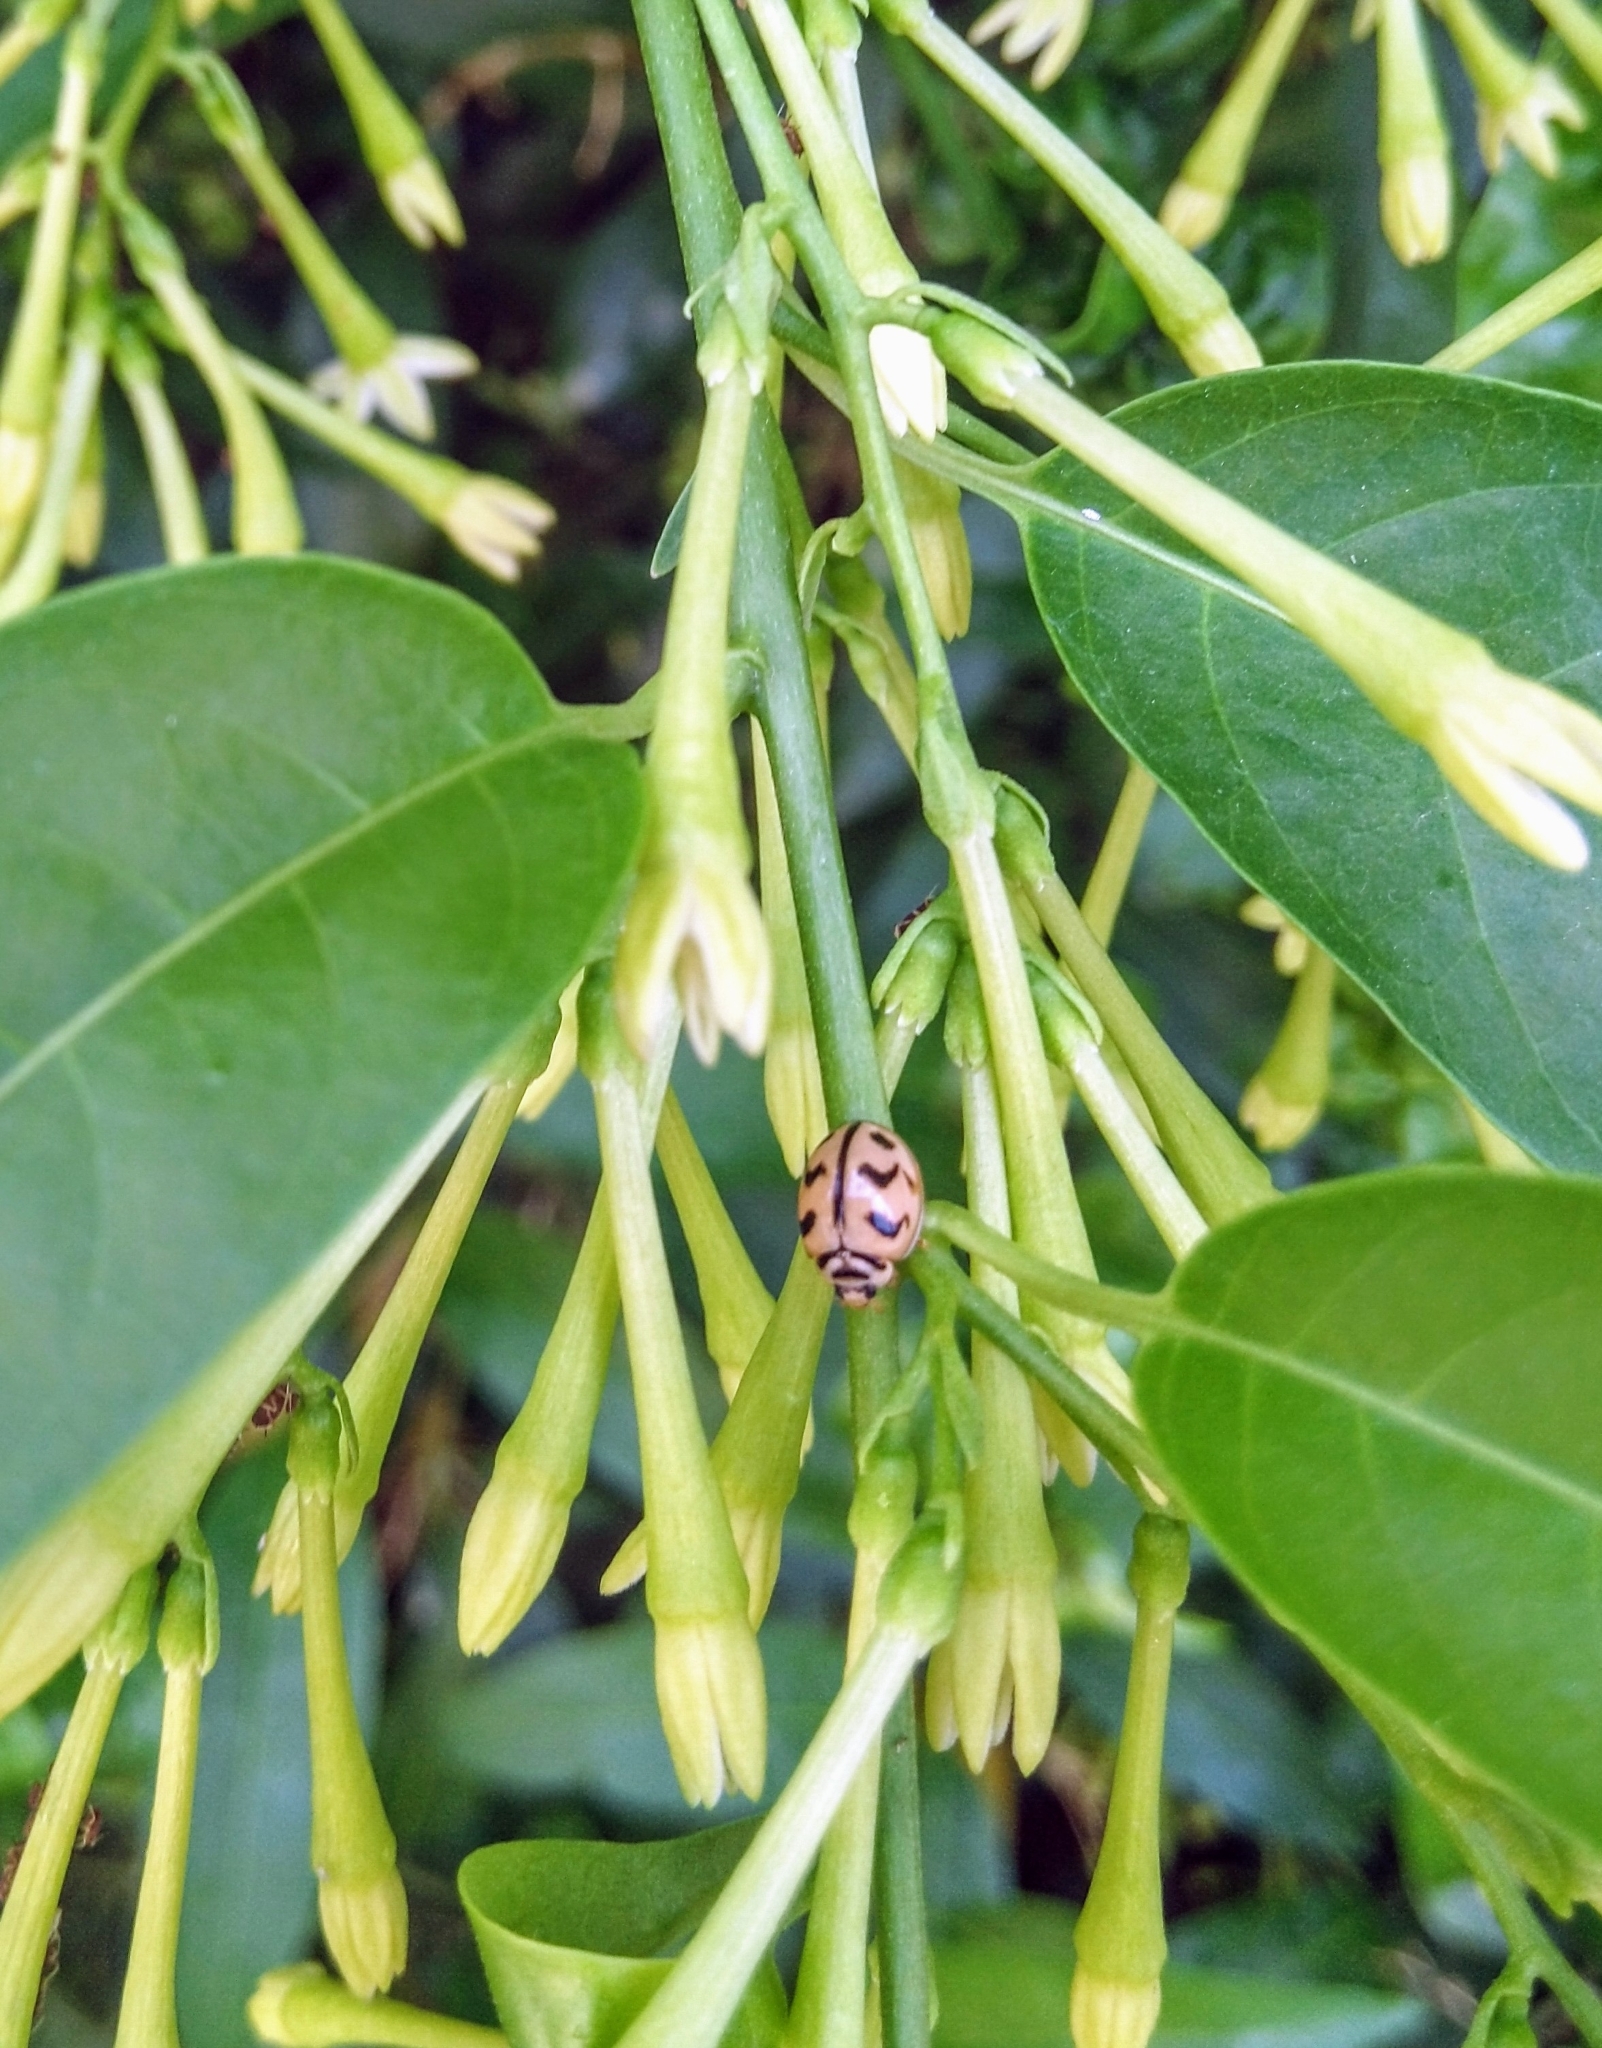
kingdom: Animalia
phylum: Arthropoda
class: Insecta
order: Coleoptera
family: Coccinellidae
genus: Cheilomenes
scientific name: Cheilomenes sexmaculata
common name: Ladybird beetle
